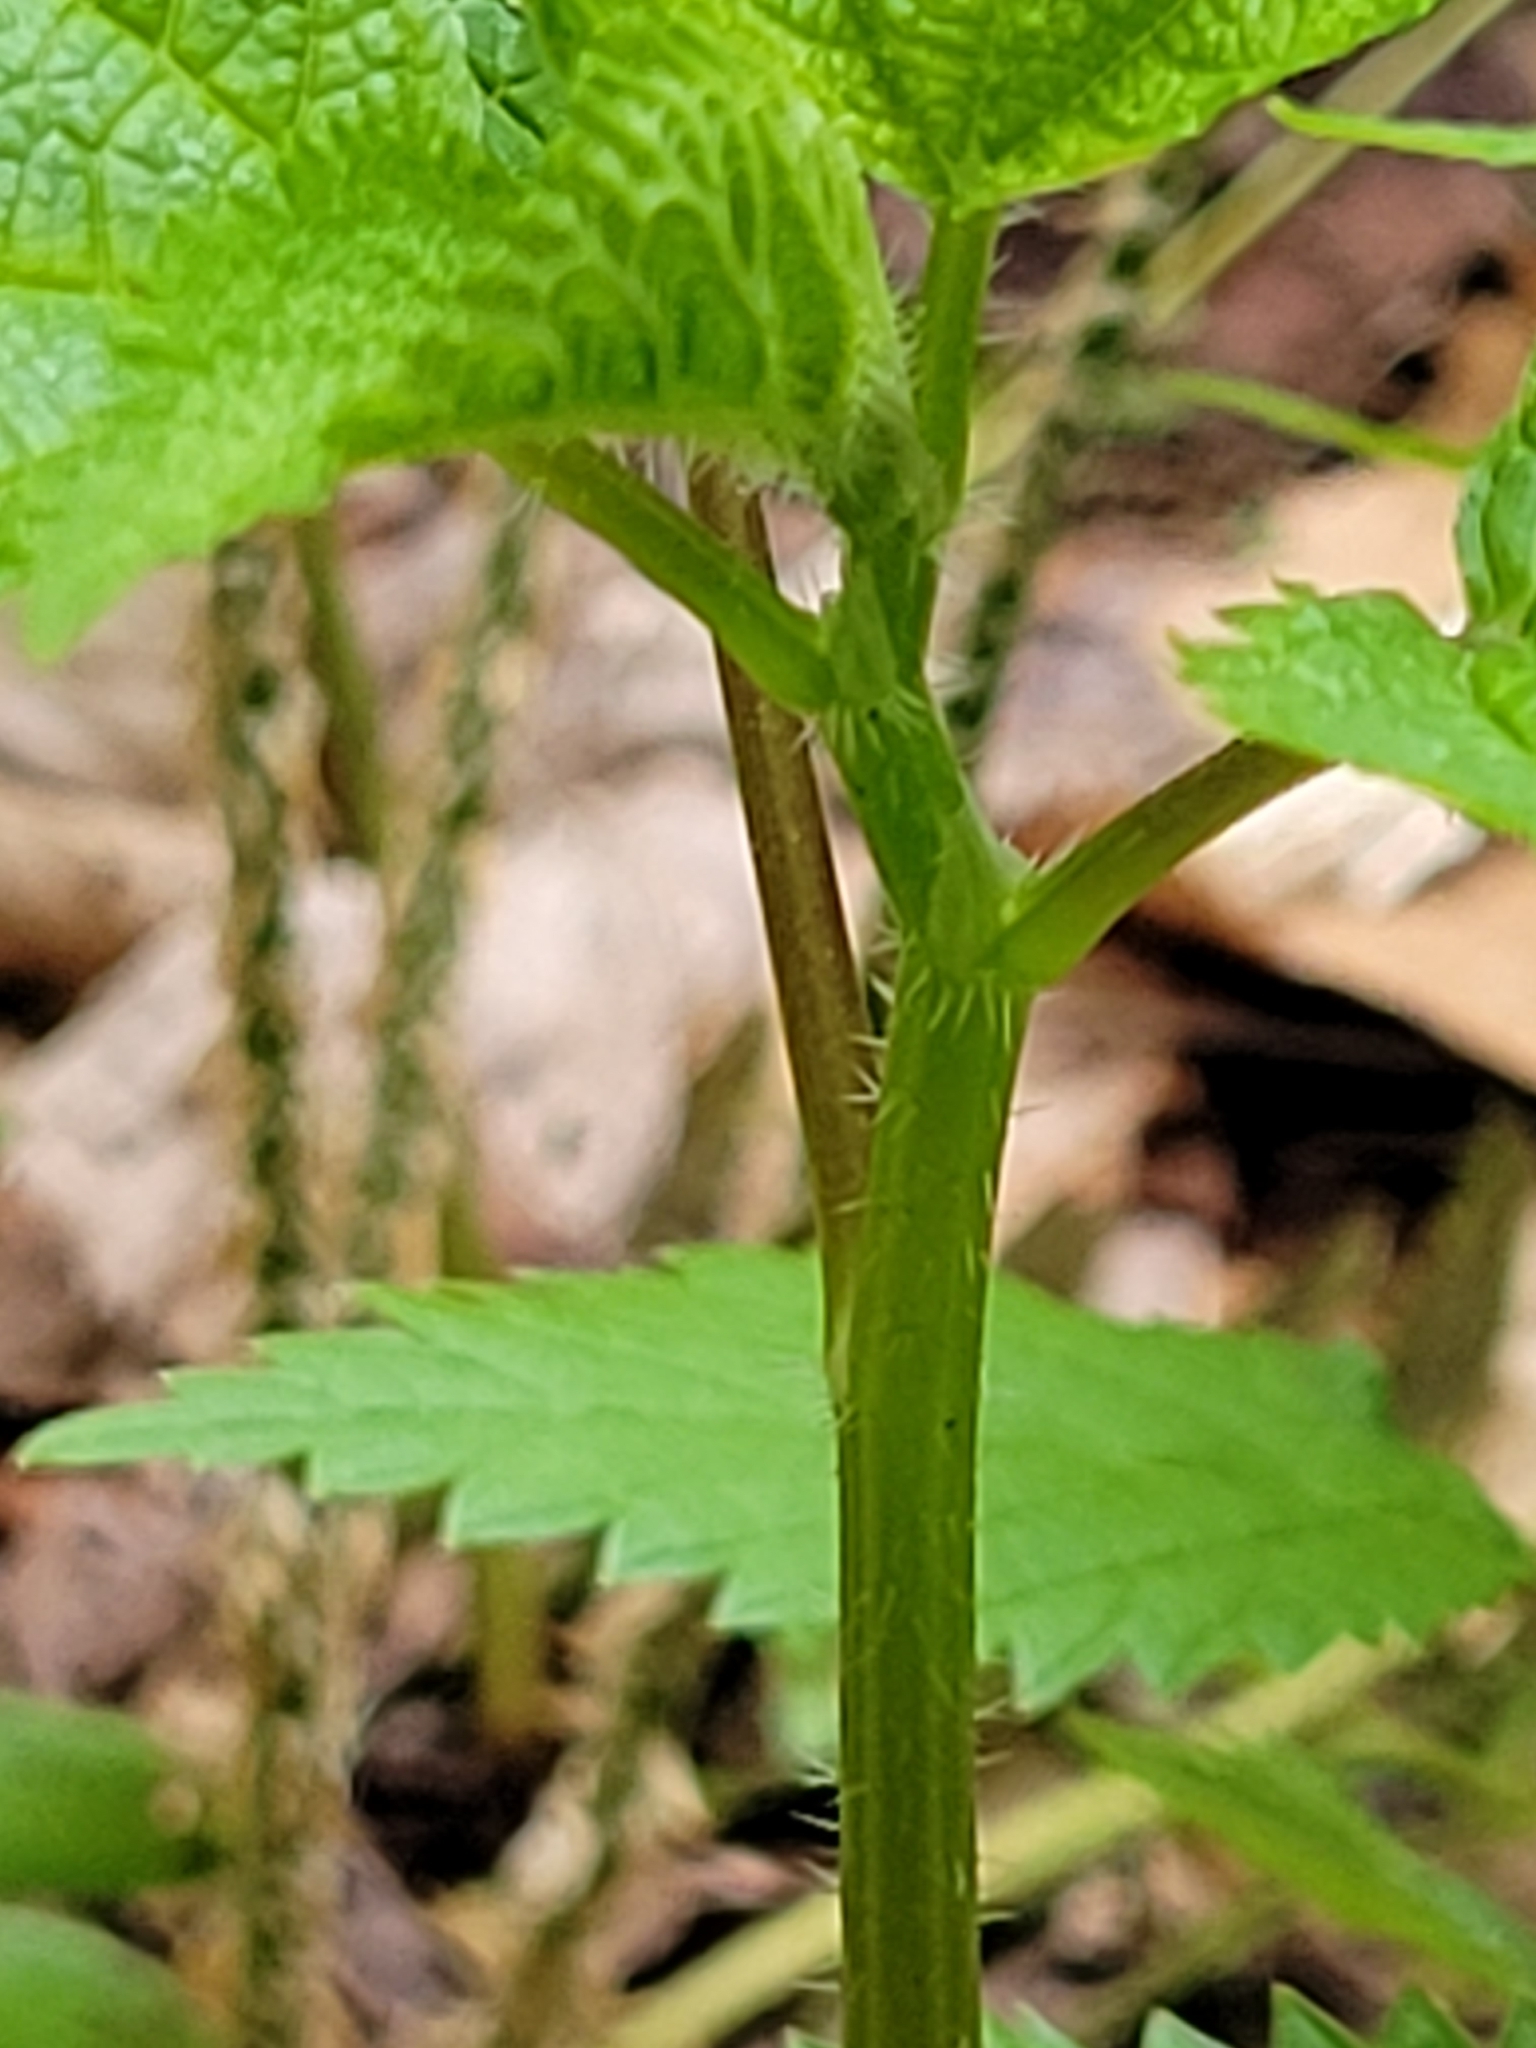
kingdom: Plantae
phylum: Tracheophyta
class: Magnoliopsida
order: Rosales
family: Urticaceae
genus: Laportea
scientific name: Laportea canadensis
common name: Canada nettle
